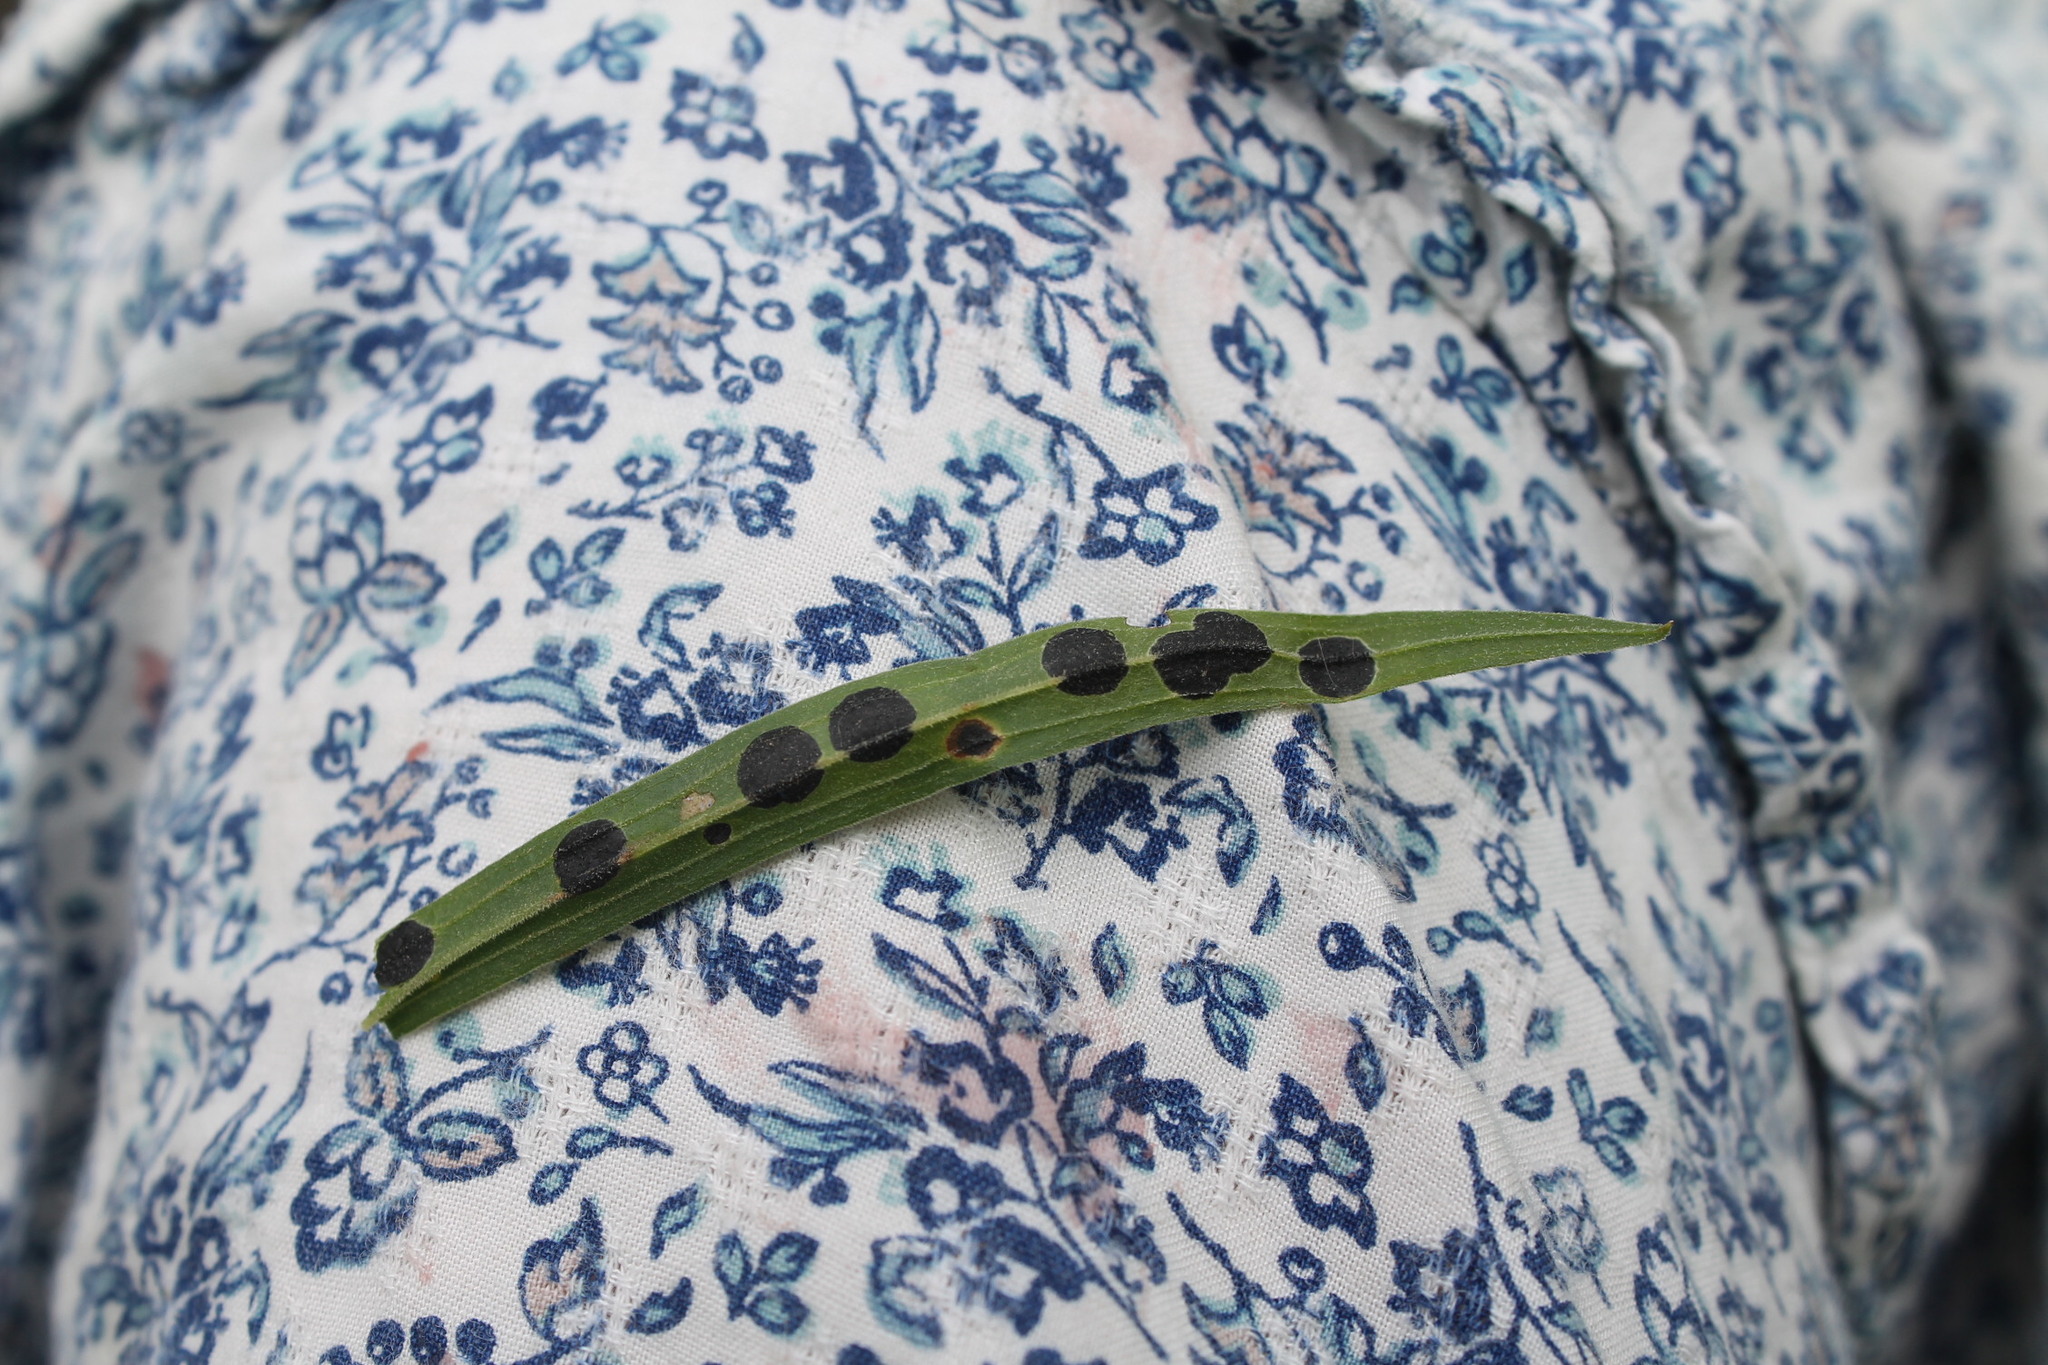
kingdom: Animalia
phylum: Arthropoda
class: Insecta
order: Diptera
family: Cecidomyiidae
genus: Asteromyia
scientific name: Asteromyia euthamiae
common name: Euthamia leaf gall midge
